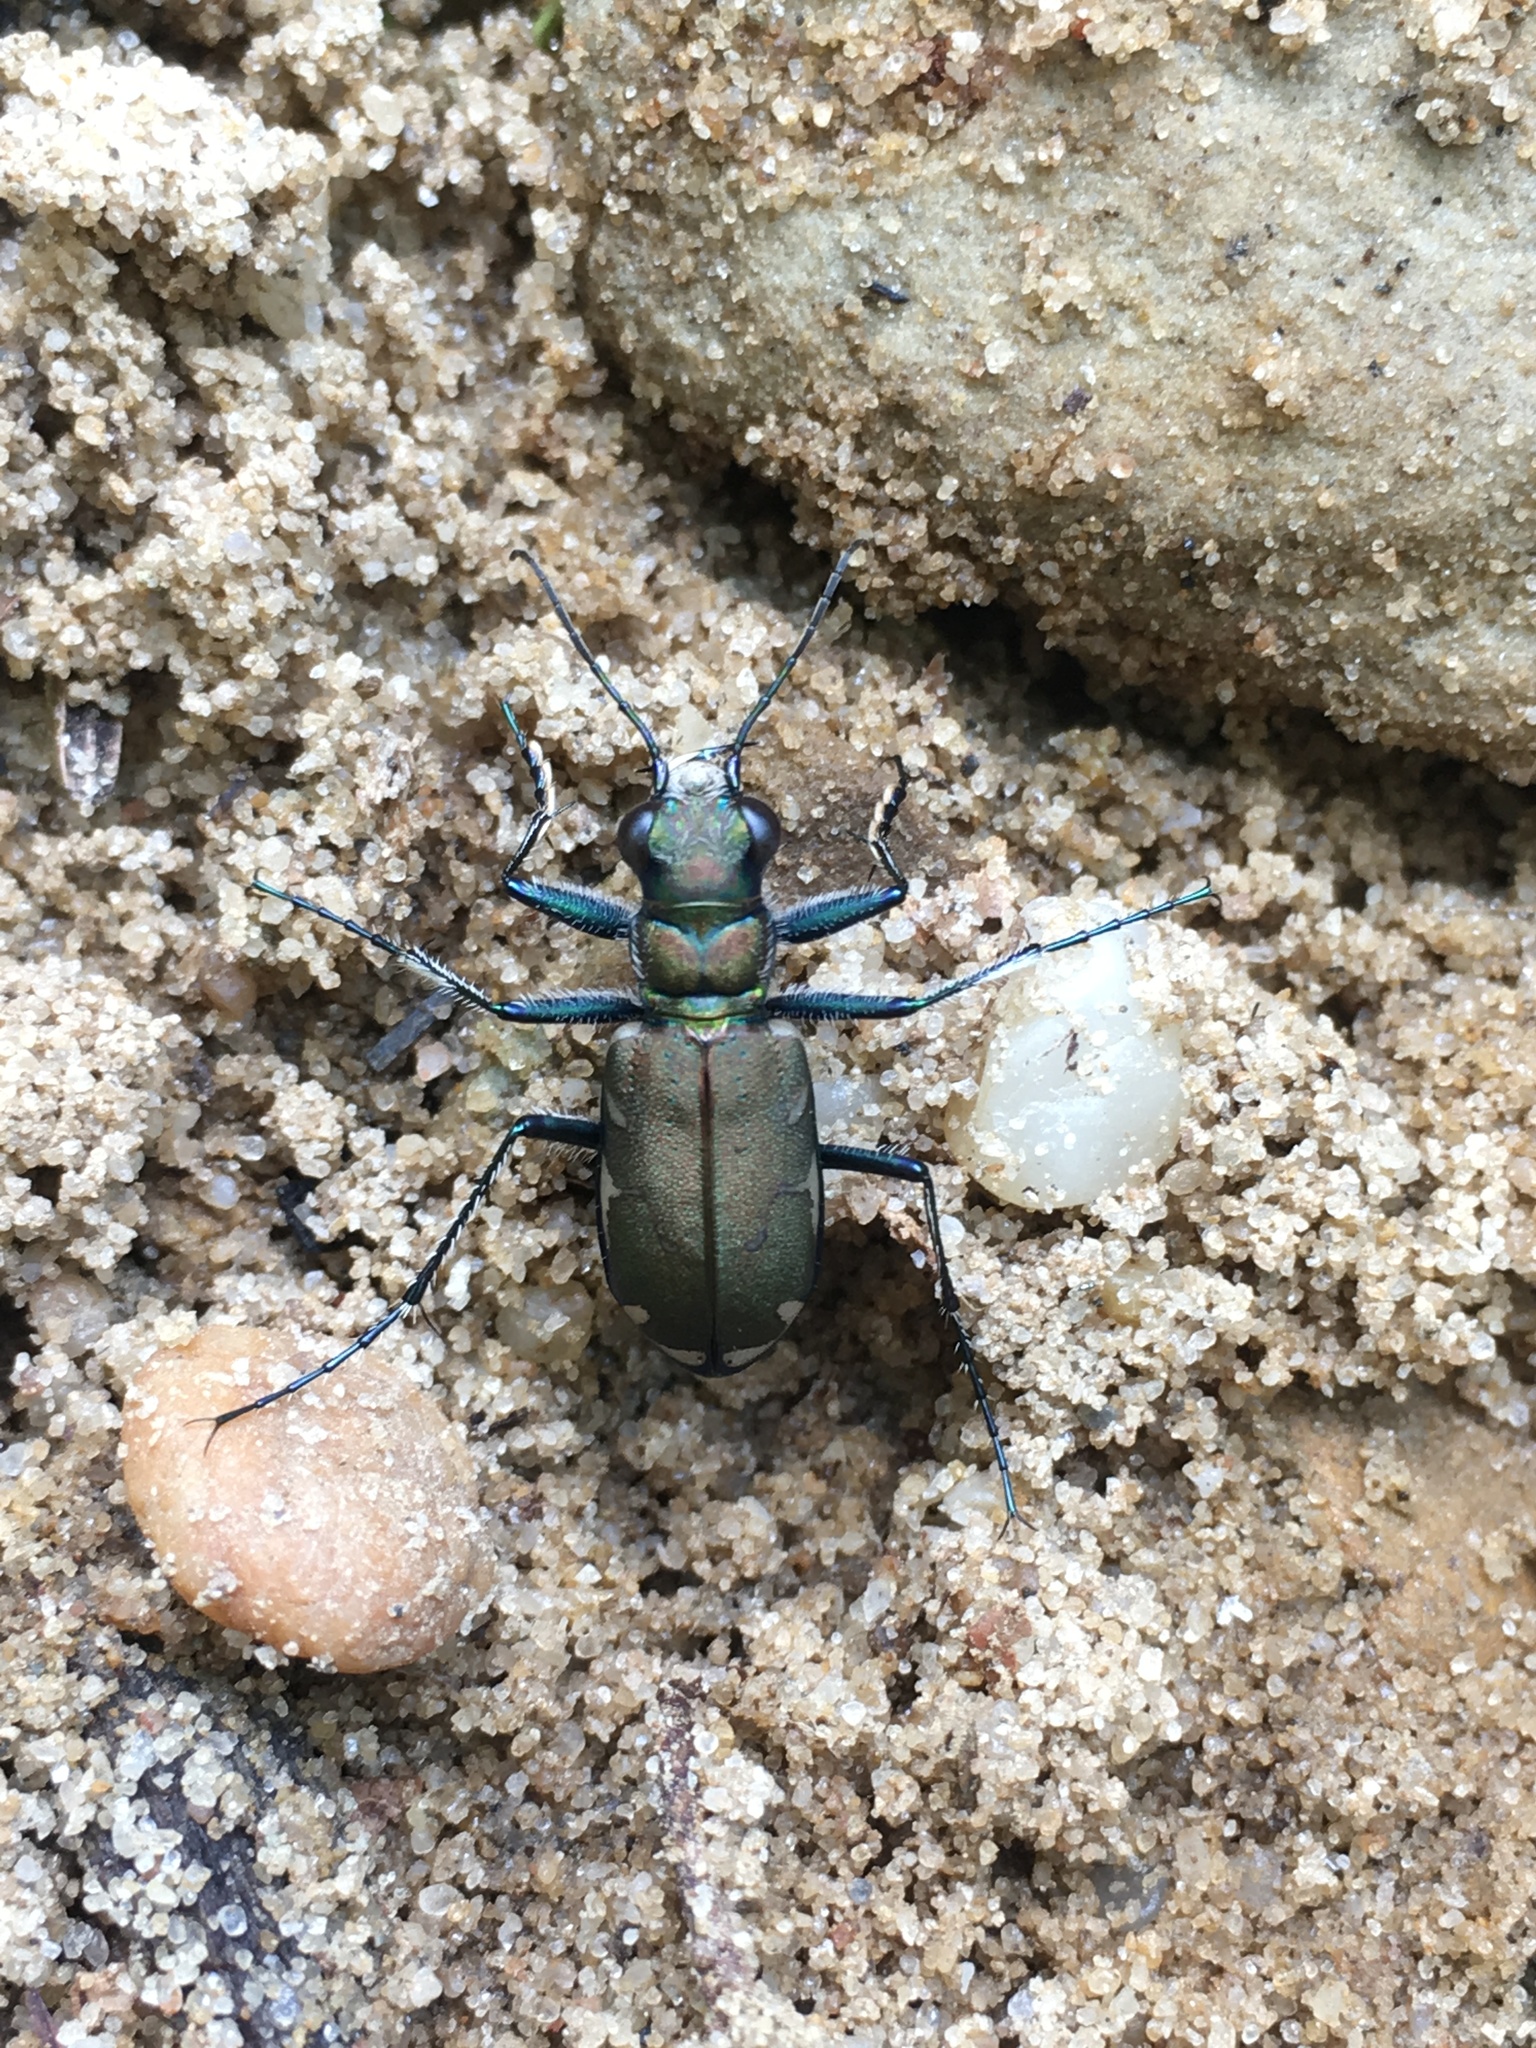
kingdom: Animalia
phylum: Arthropoda
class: Insecta
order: Coleoptera
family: Carabidae
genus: Cicindela
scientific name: Cicindela ancocisconensis
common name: Appalachian tiger beetle
